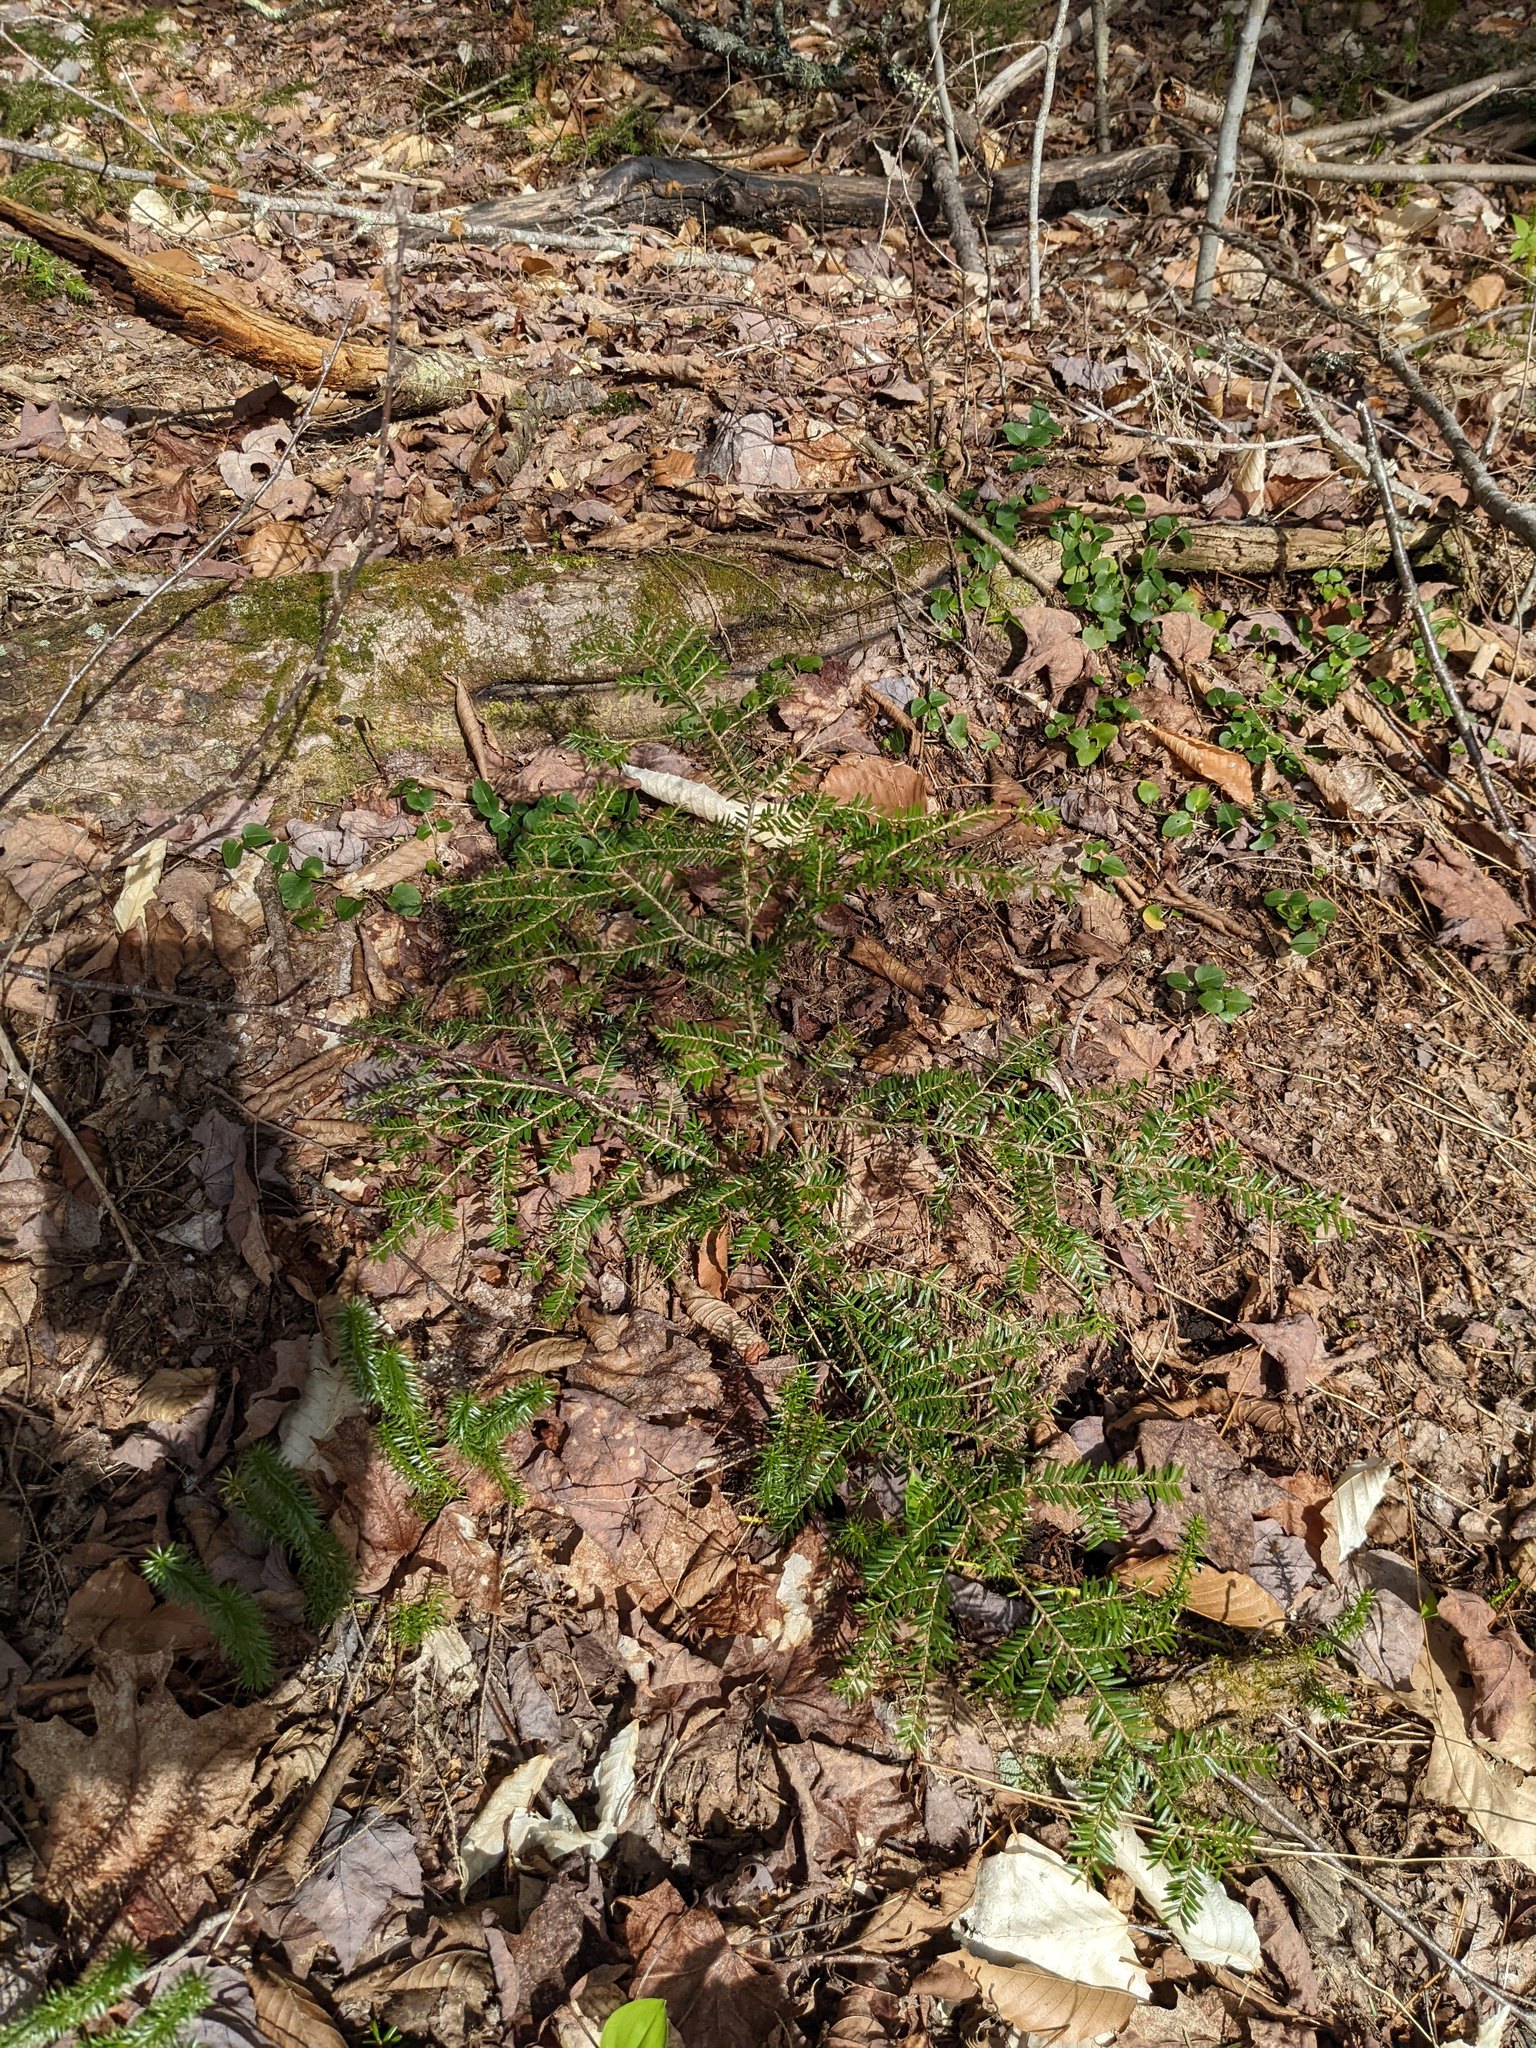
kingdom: Plantae
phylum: Tracheophyta
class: Pinopsida
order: Pinales
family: Pinaceae
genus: Tsuga
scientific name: Tsuga canadensis
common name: Eastern hemlock
